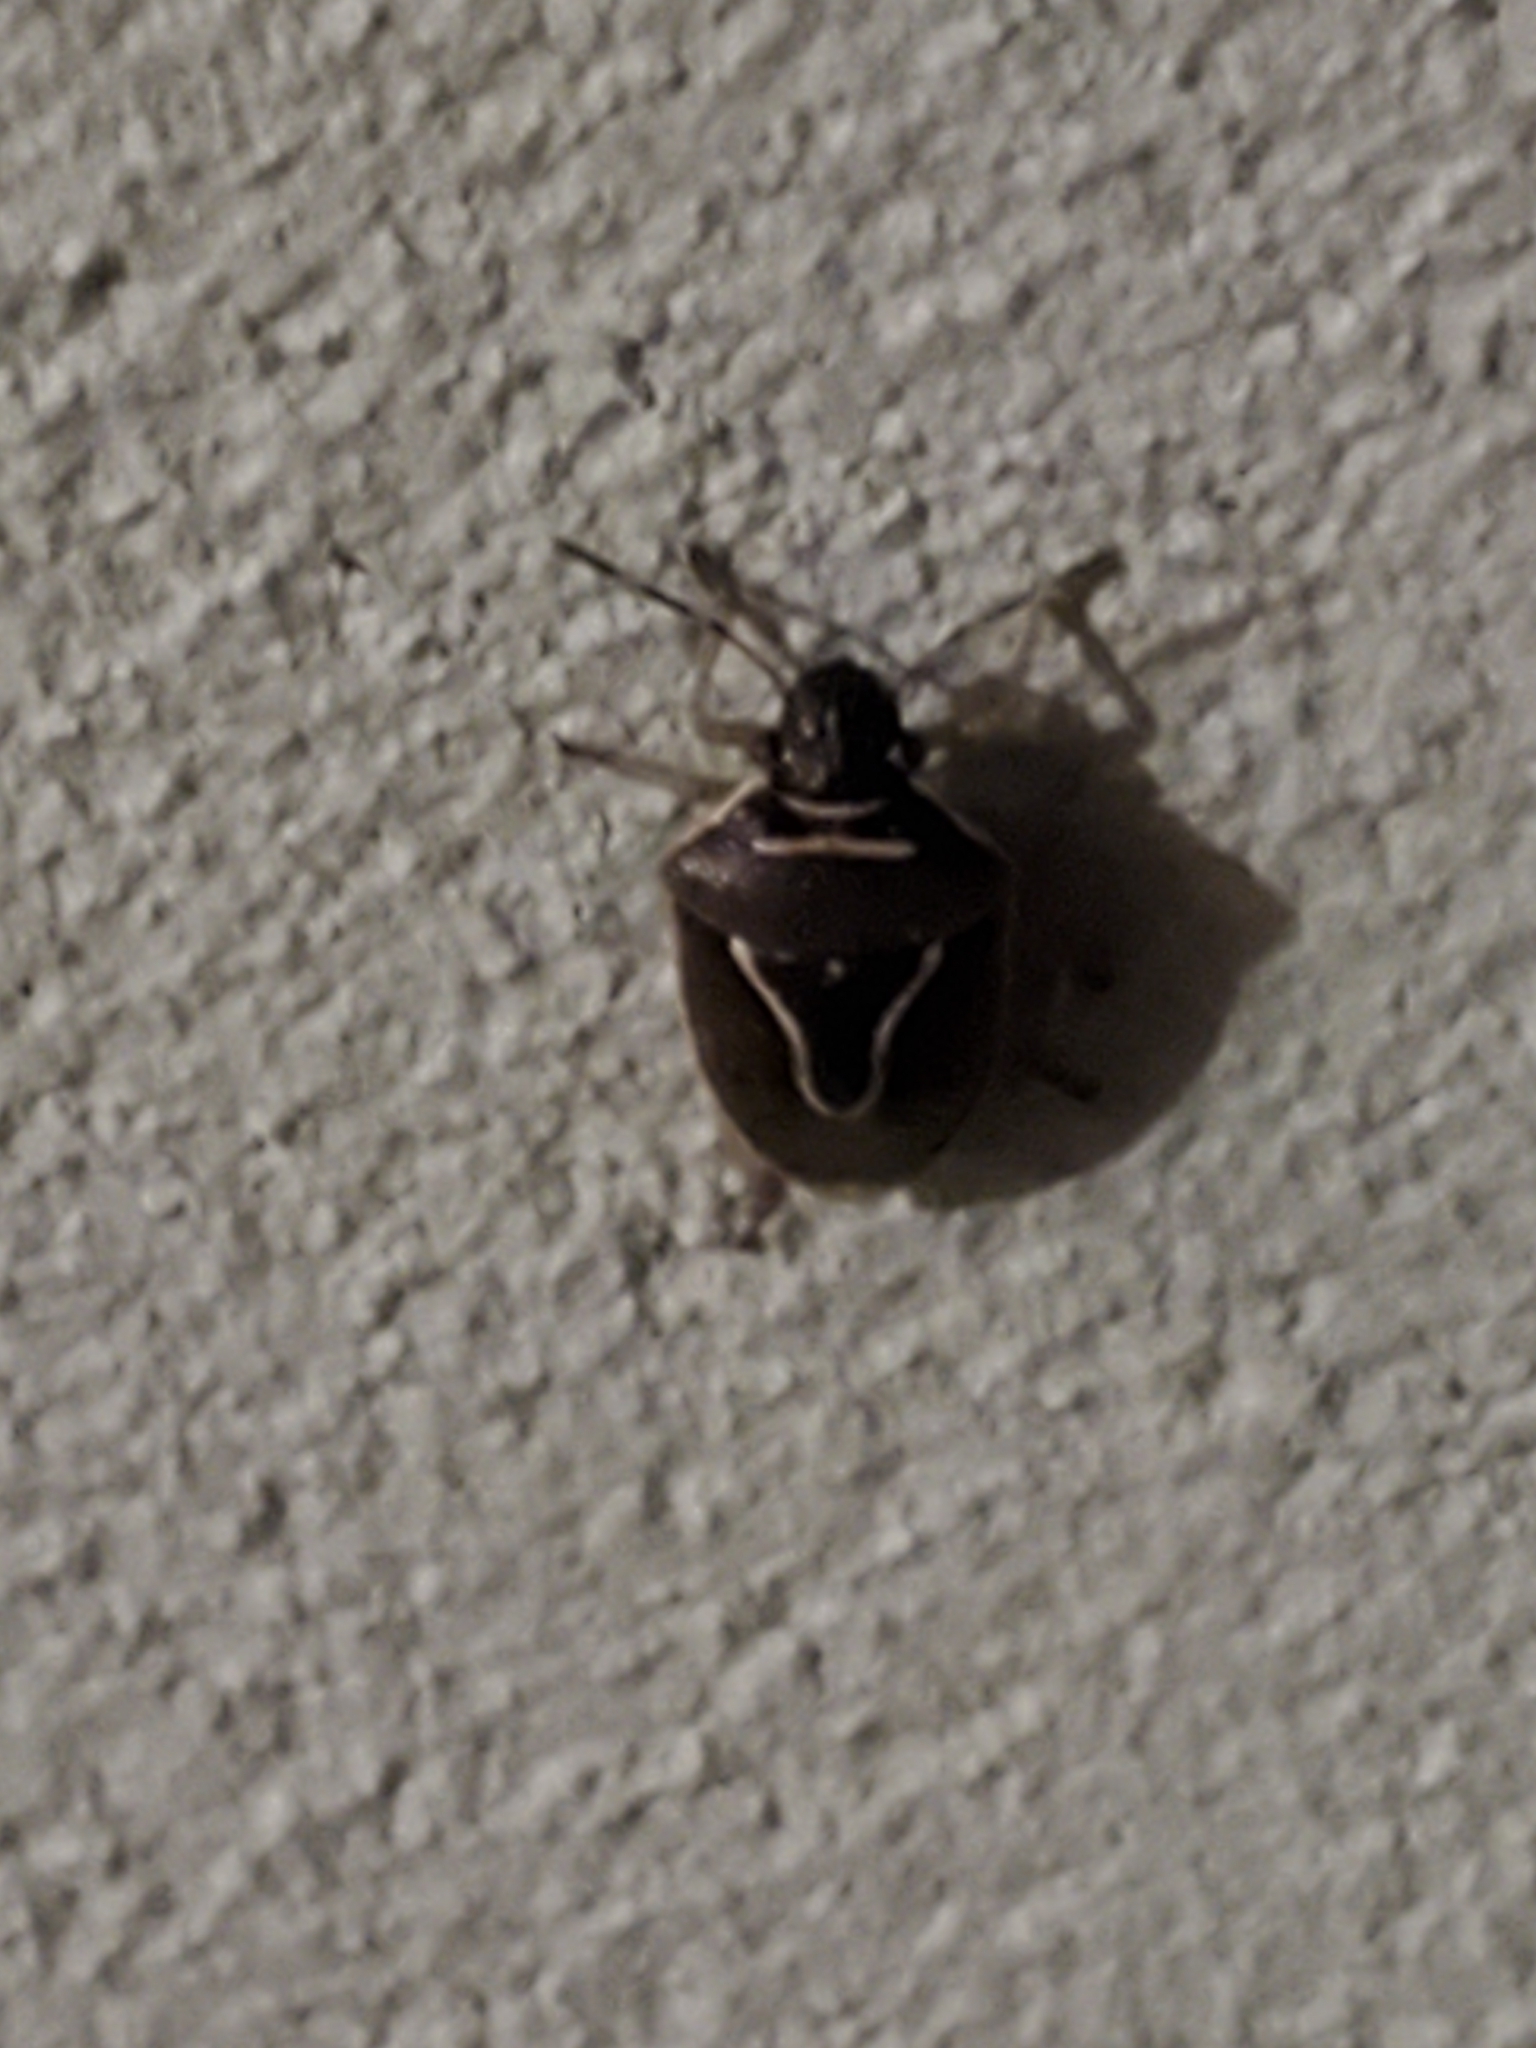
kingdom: Animalia
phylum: Arthropoda
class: Insecta
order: Hemiptera
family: Pentatomidae
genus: Mormidea
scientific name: Mormidea lugens
